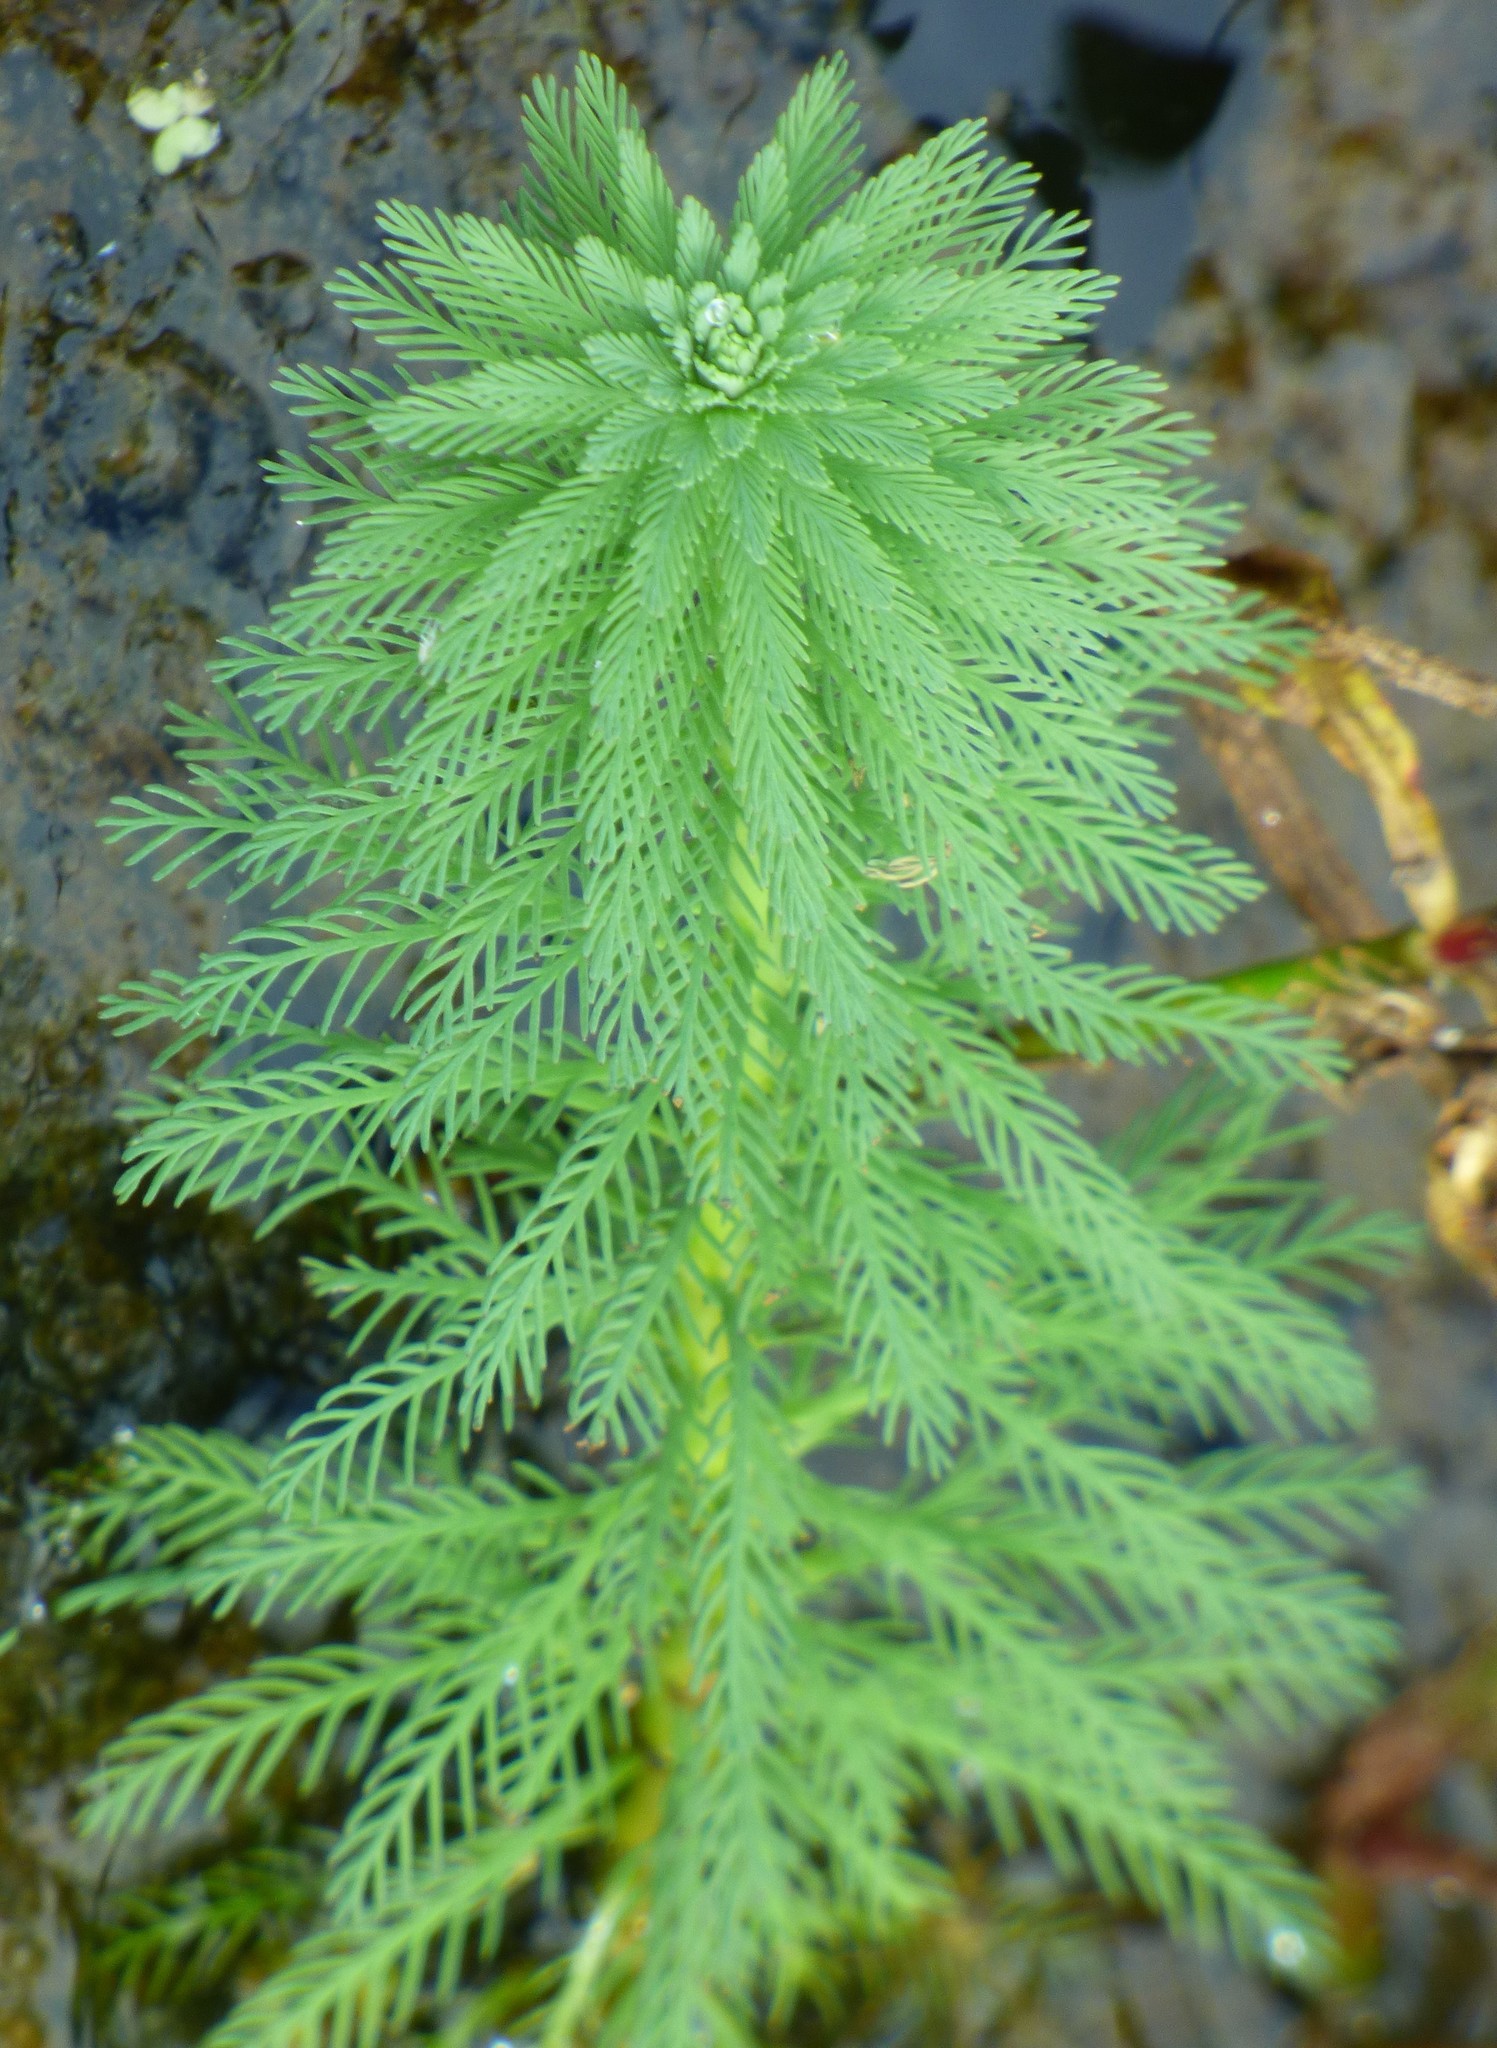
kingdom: Plantae
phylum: Tracheophyta
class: Magnoliopsida
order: Saxifragales
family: Haloragaceae
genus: Myriophyllum
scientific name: Myriophyllum aquaticum
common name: Parrot's feather
